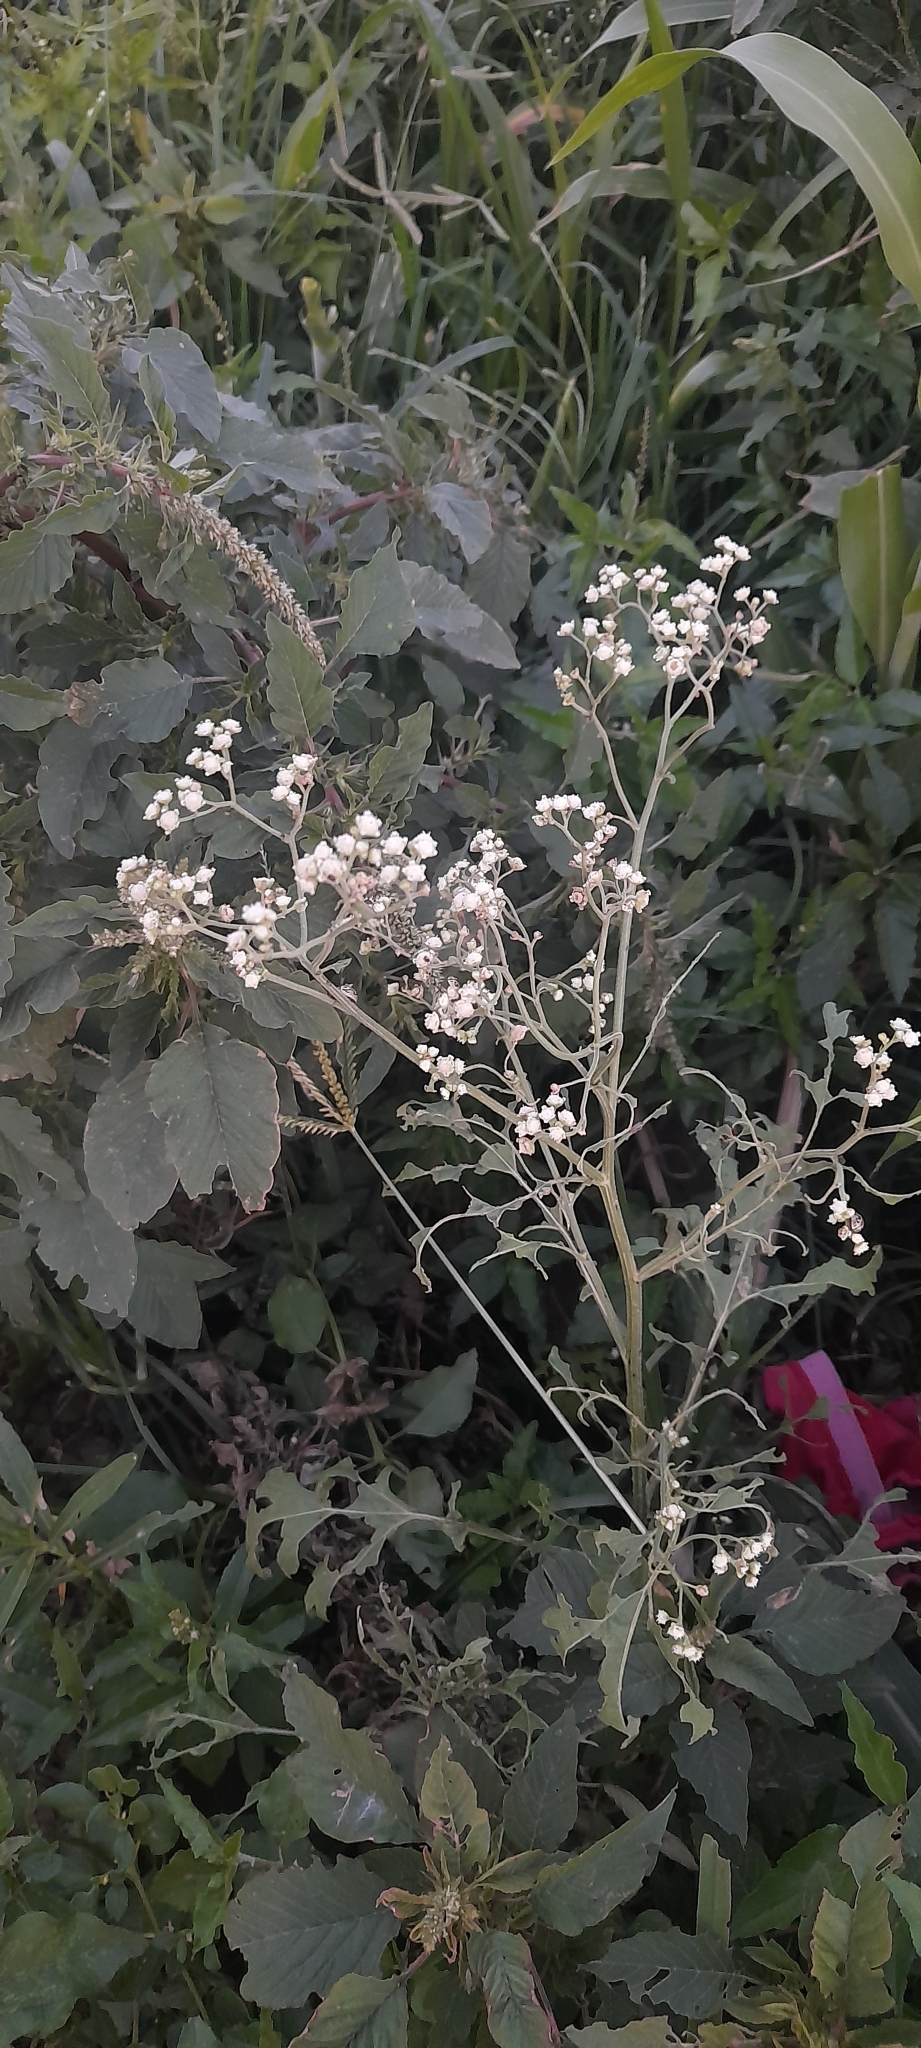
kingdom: Plantae
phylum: Tracheophyta
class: Magnoliopsida
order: Asterales
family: Asteraceae
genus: Parthenium
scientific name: Parthenium hysterophorus
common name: Santa maria feverfew
